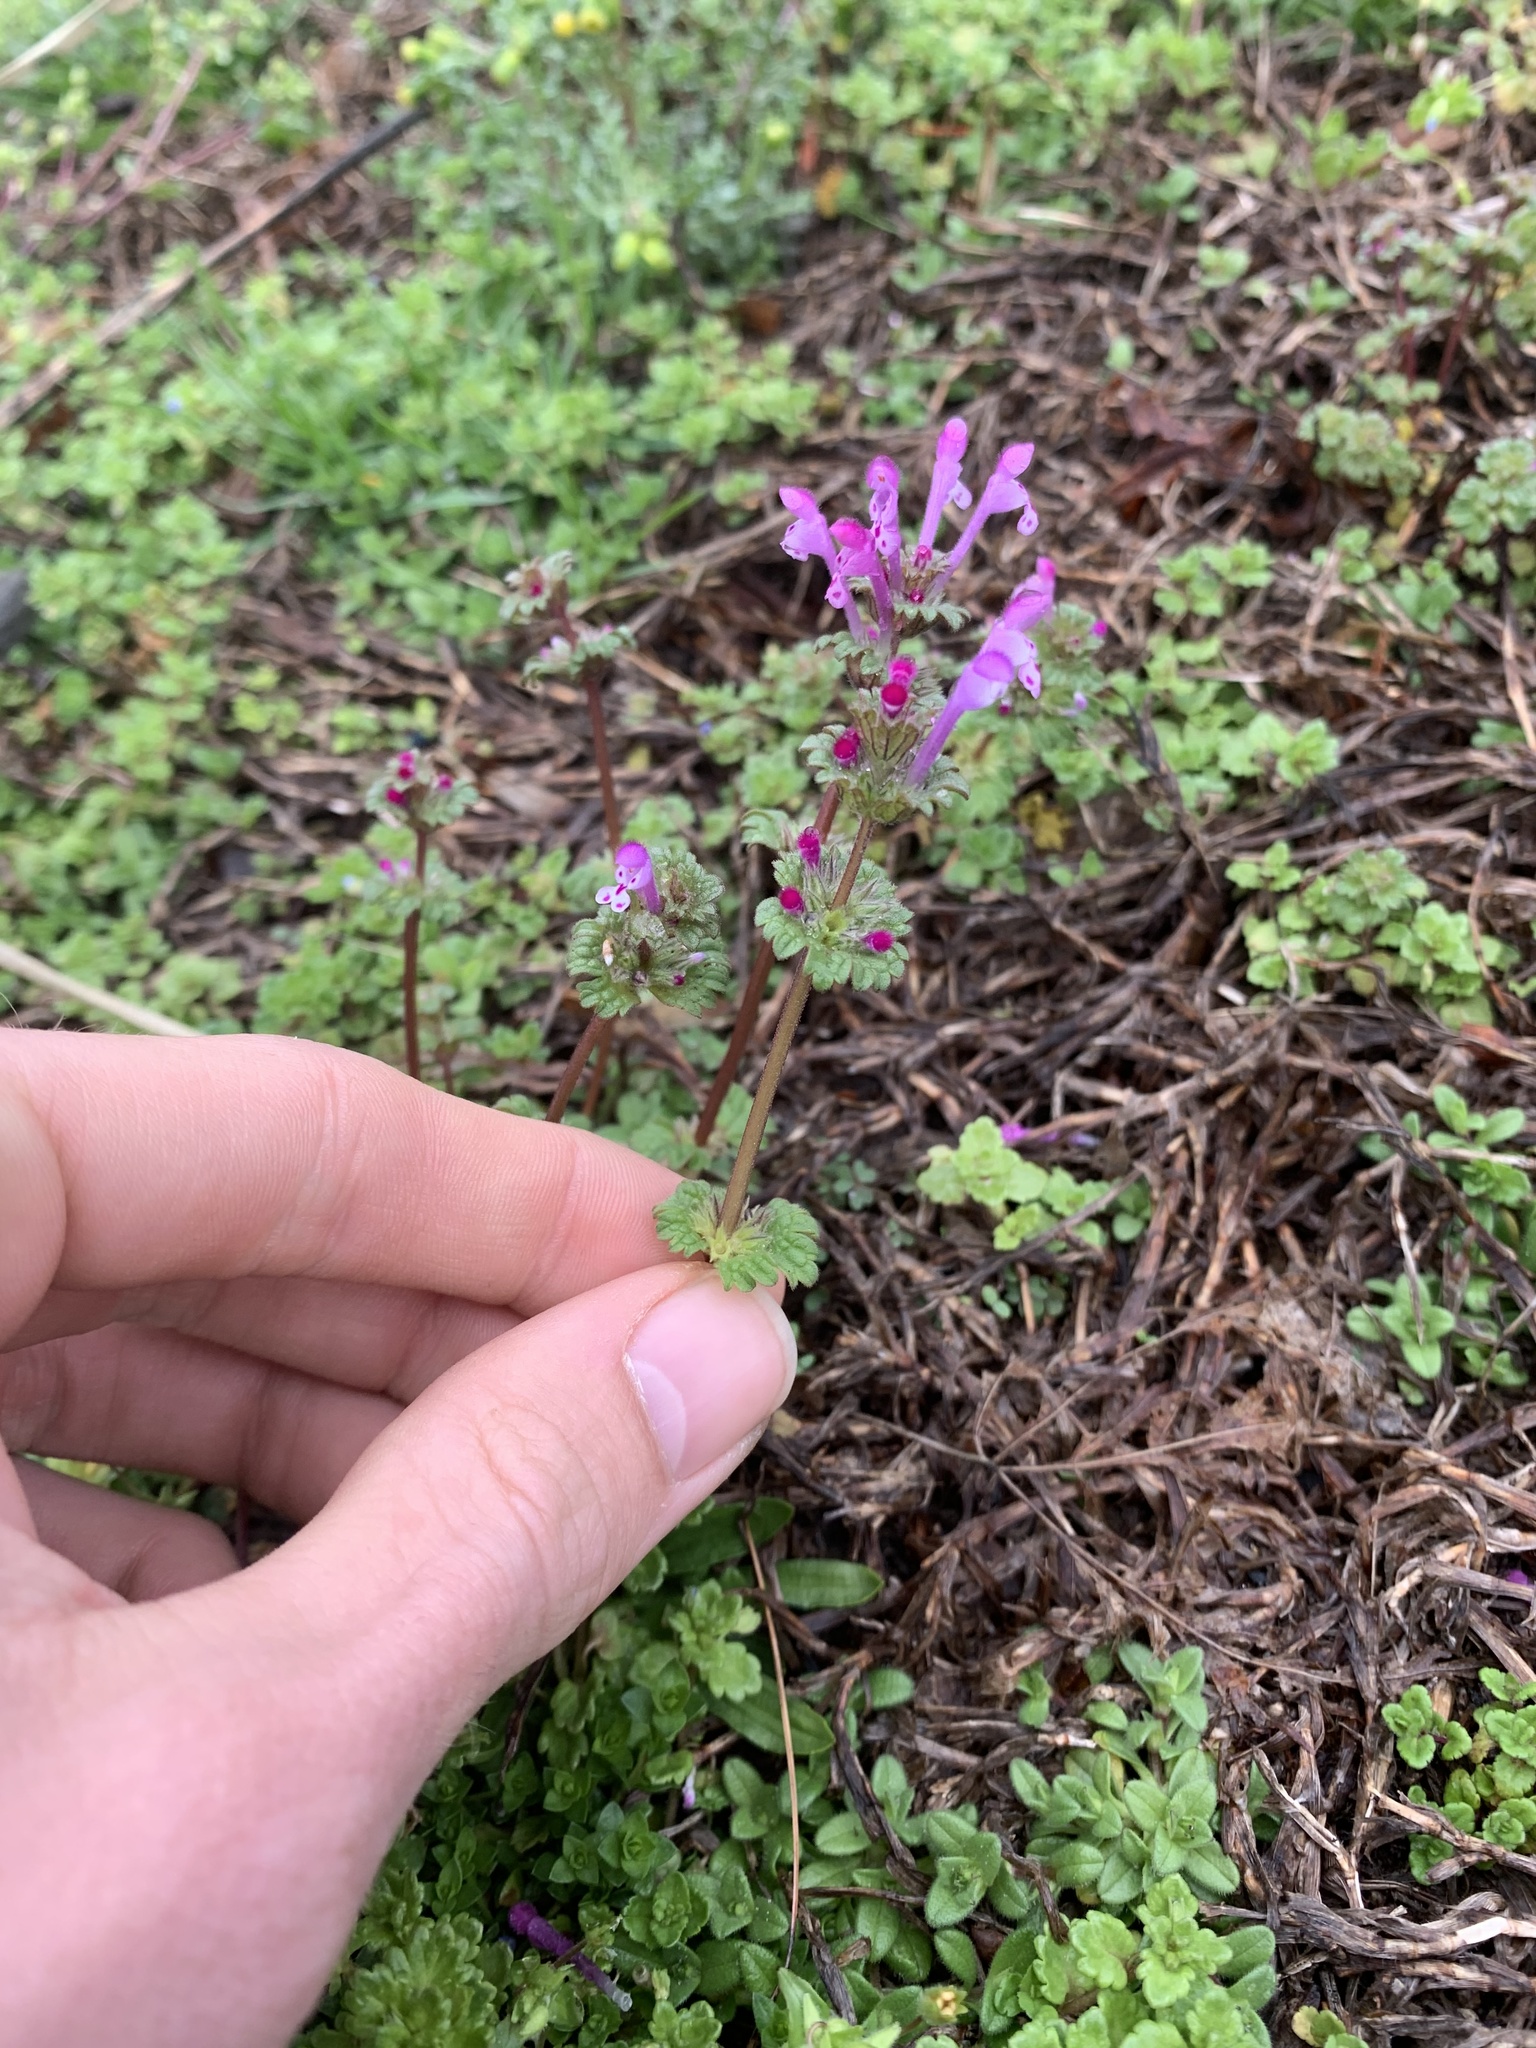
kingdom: Plantae
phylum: Tracheophyta
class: Magnoliopsida
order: Lamiales
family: Lamiaceae
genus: Lamium
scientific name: Lamium amplexicaule
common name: Henbit dead-nettle
